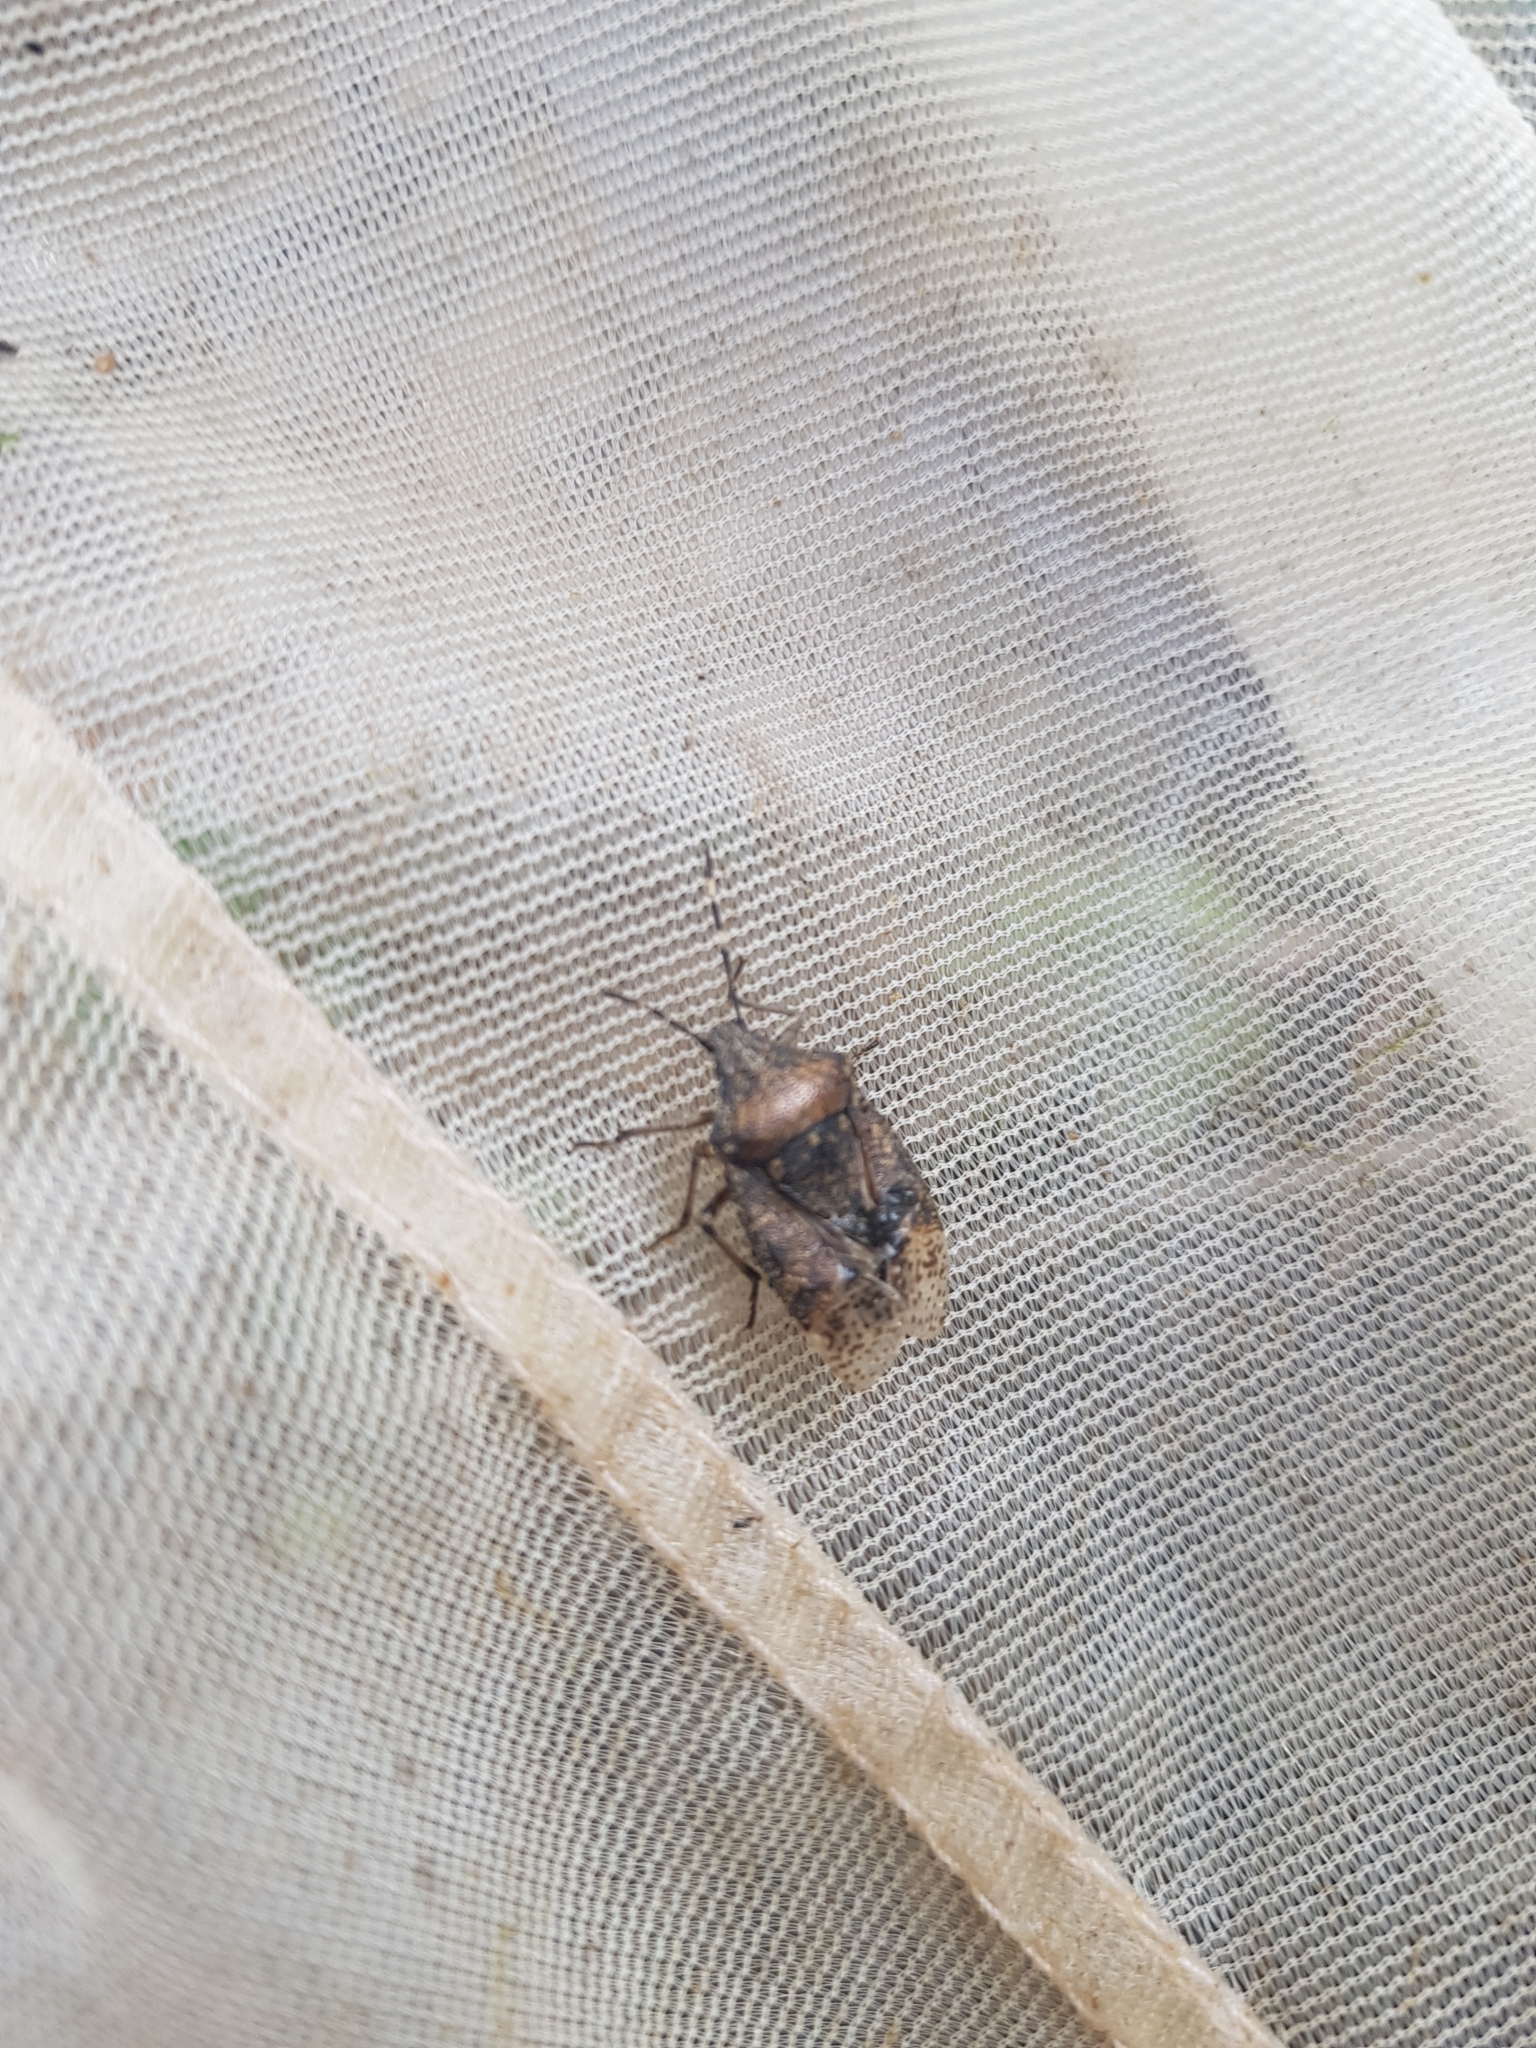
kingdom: Animalia
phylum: Arthropoda
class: Insecta
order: Hemiptera
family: Pentatomidae
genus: Rhaphigaster
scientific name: Rhaphigaster nebulosa
